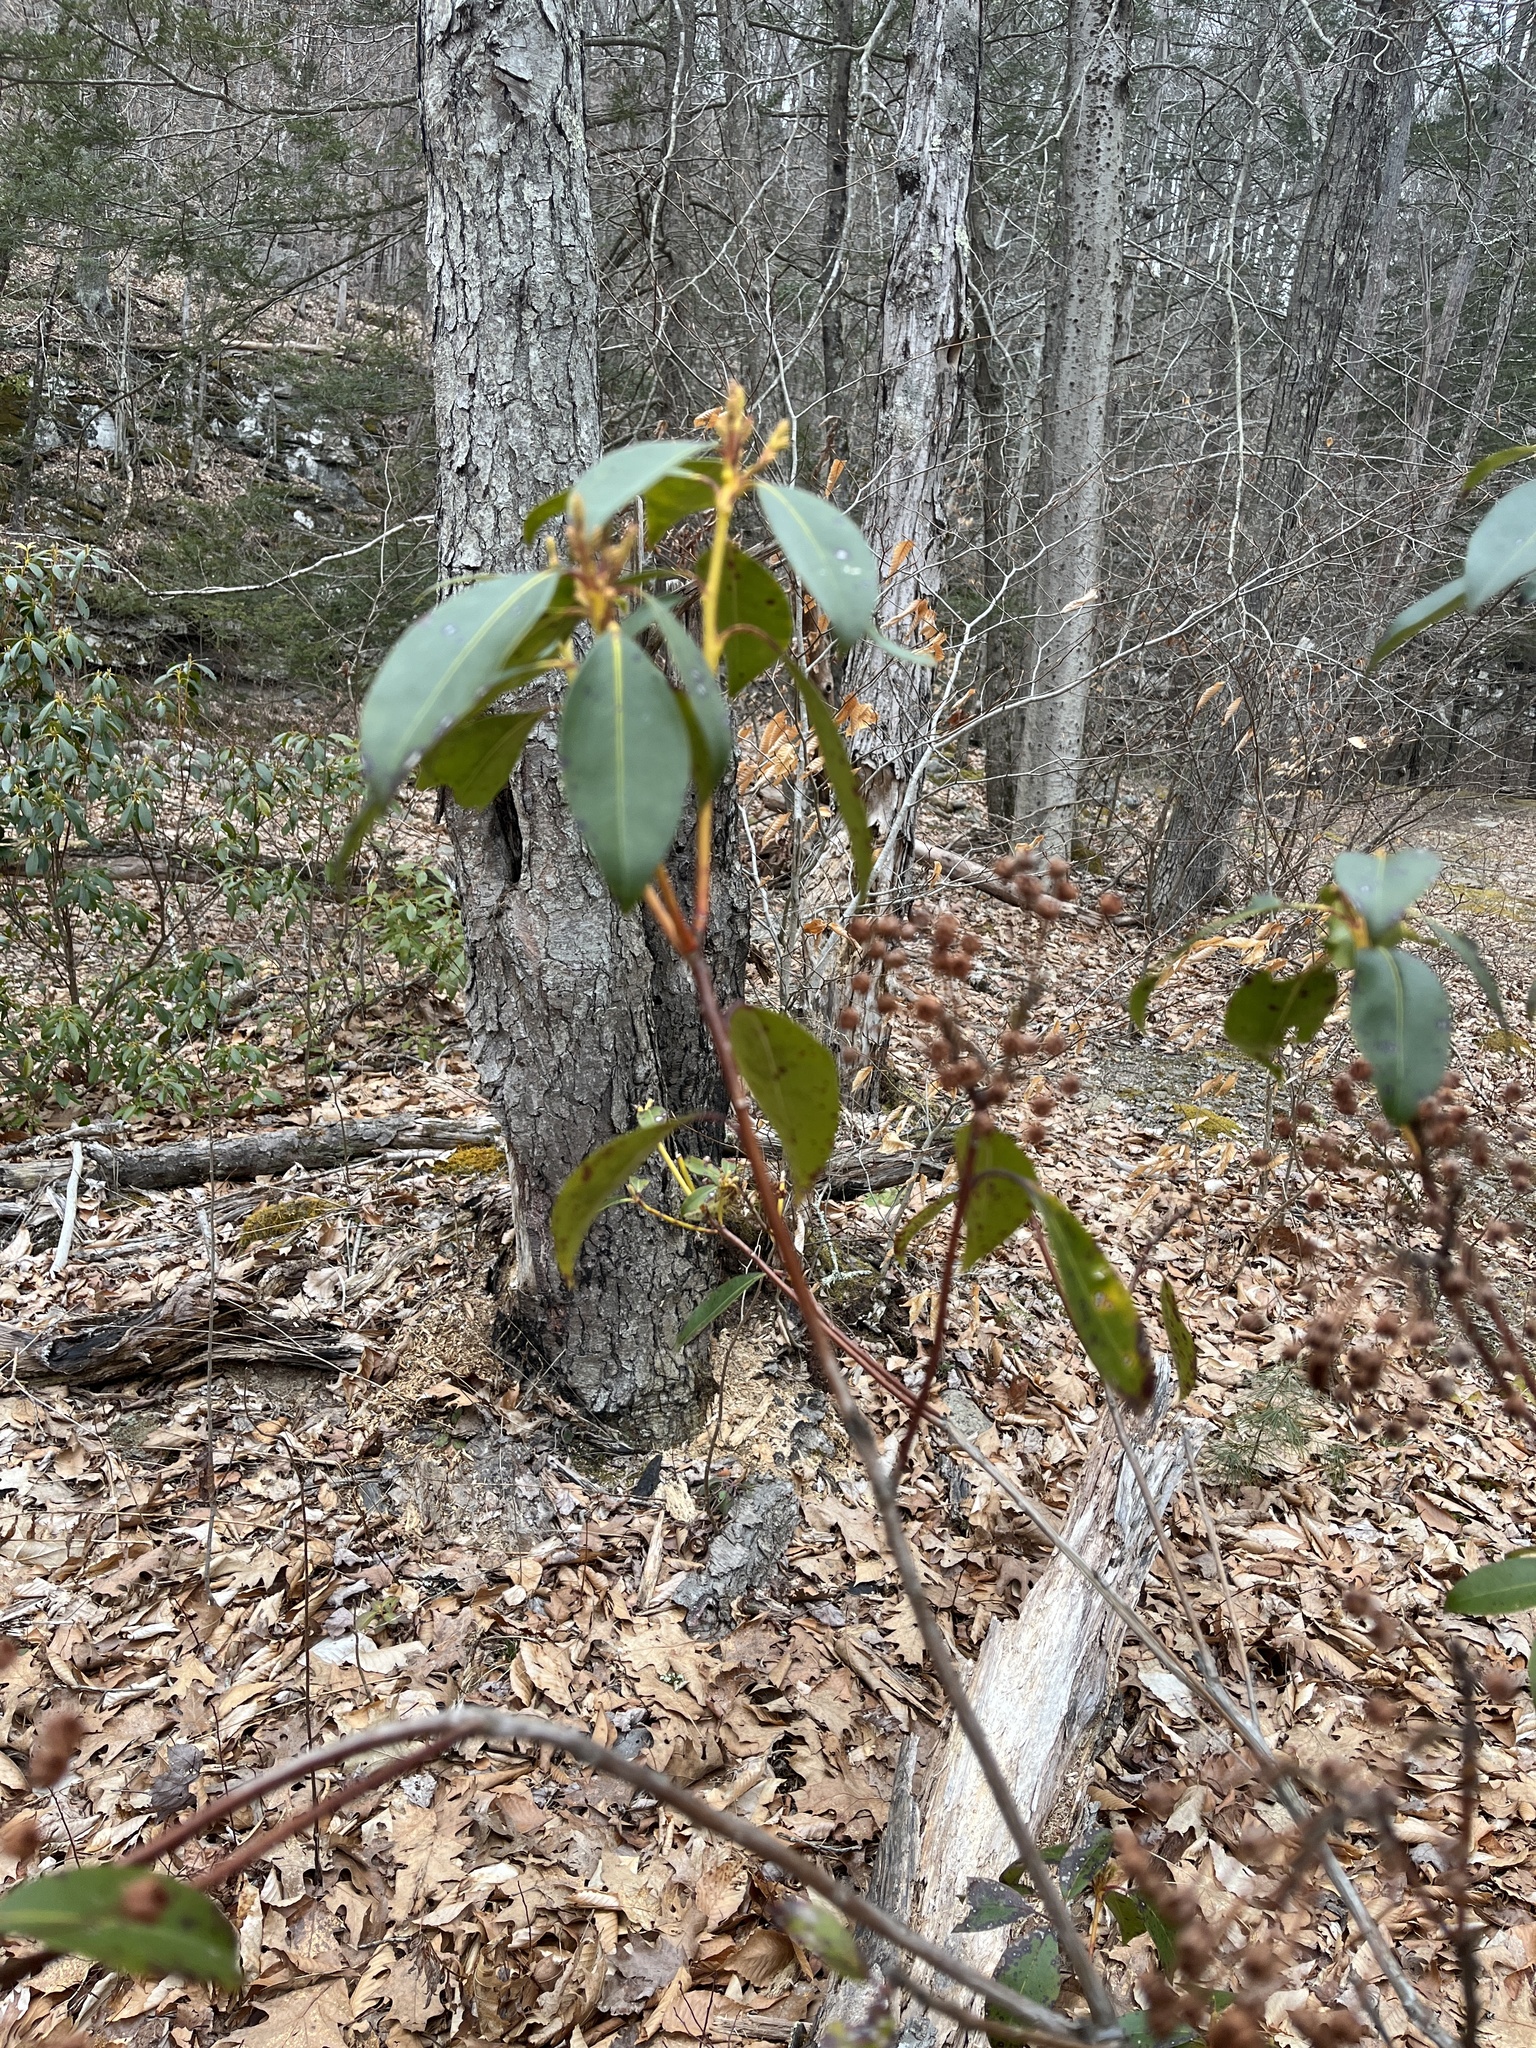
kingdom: Plantae
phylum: Tracheophyta
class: Magnoliopsida
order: Ericales
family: Ericaceae
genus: Kalmia
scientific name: Kalmia latifolia
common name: Mountain-laurel
